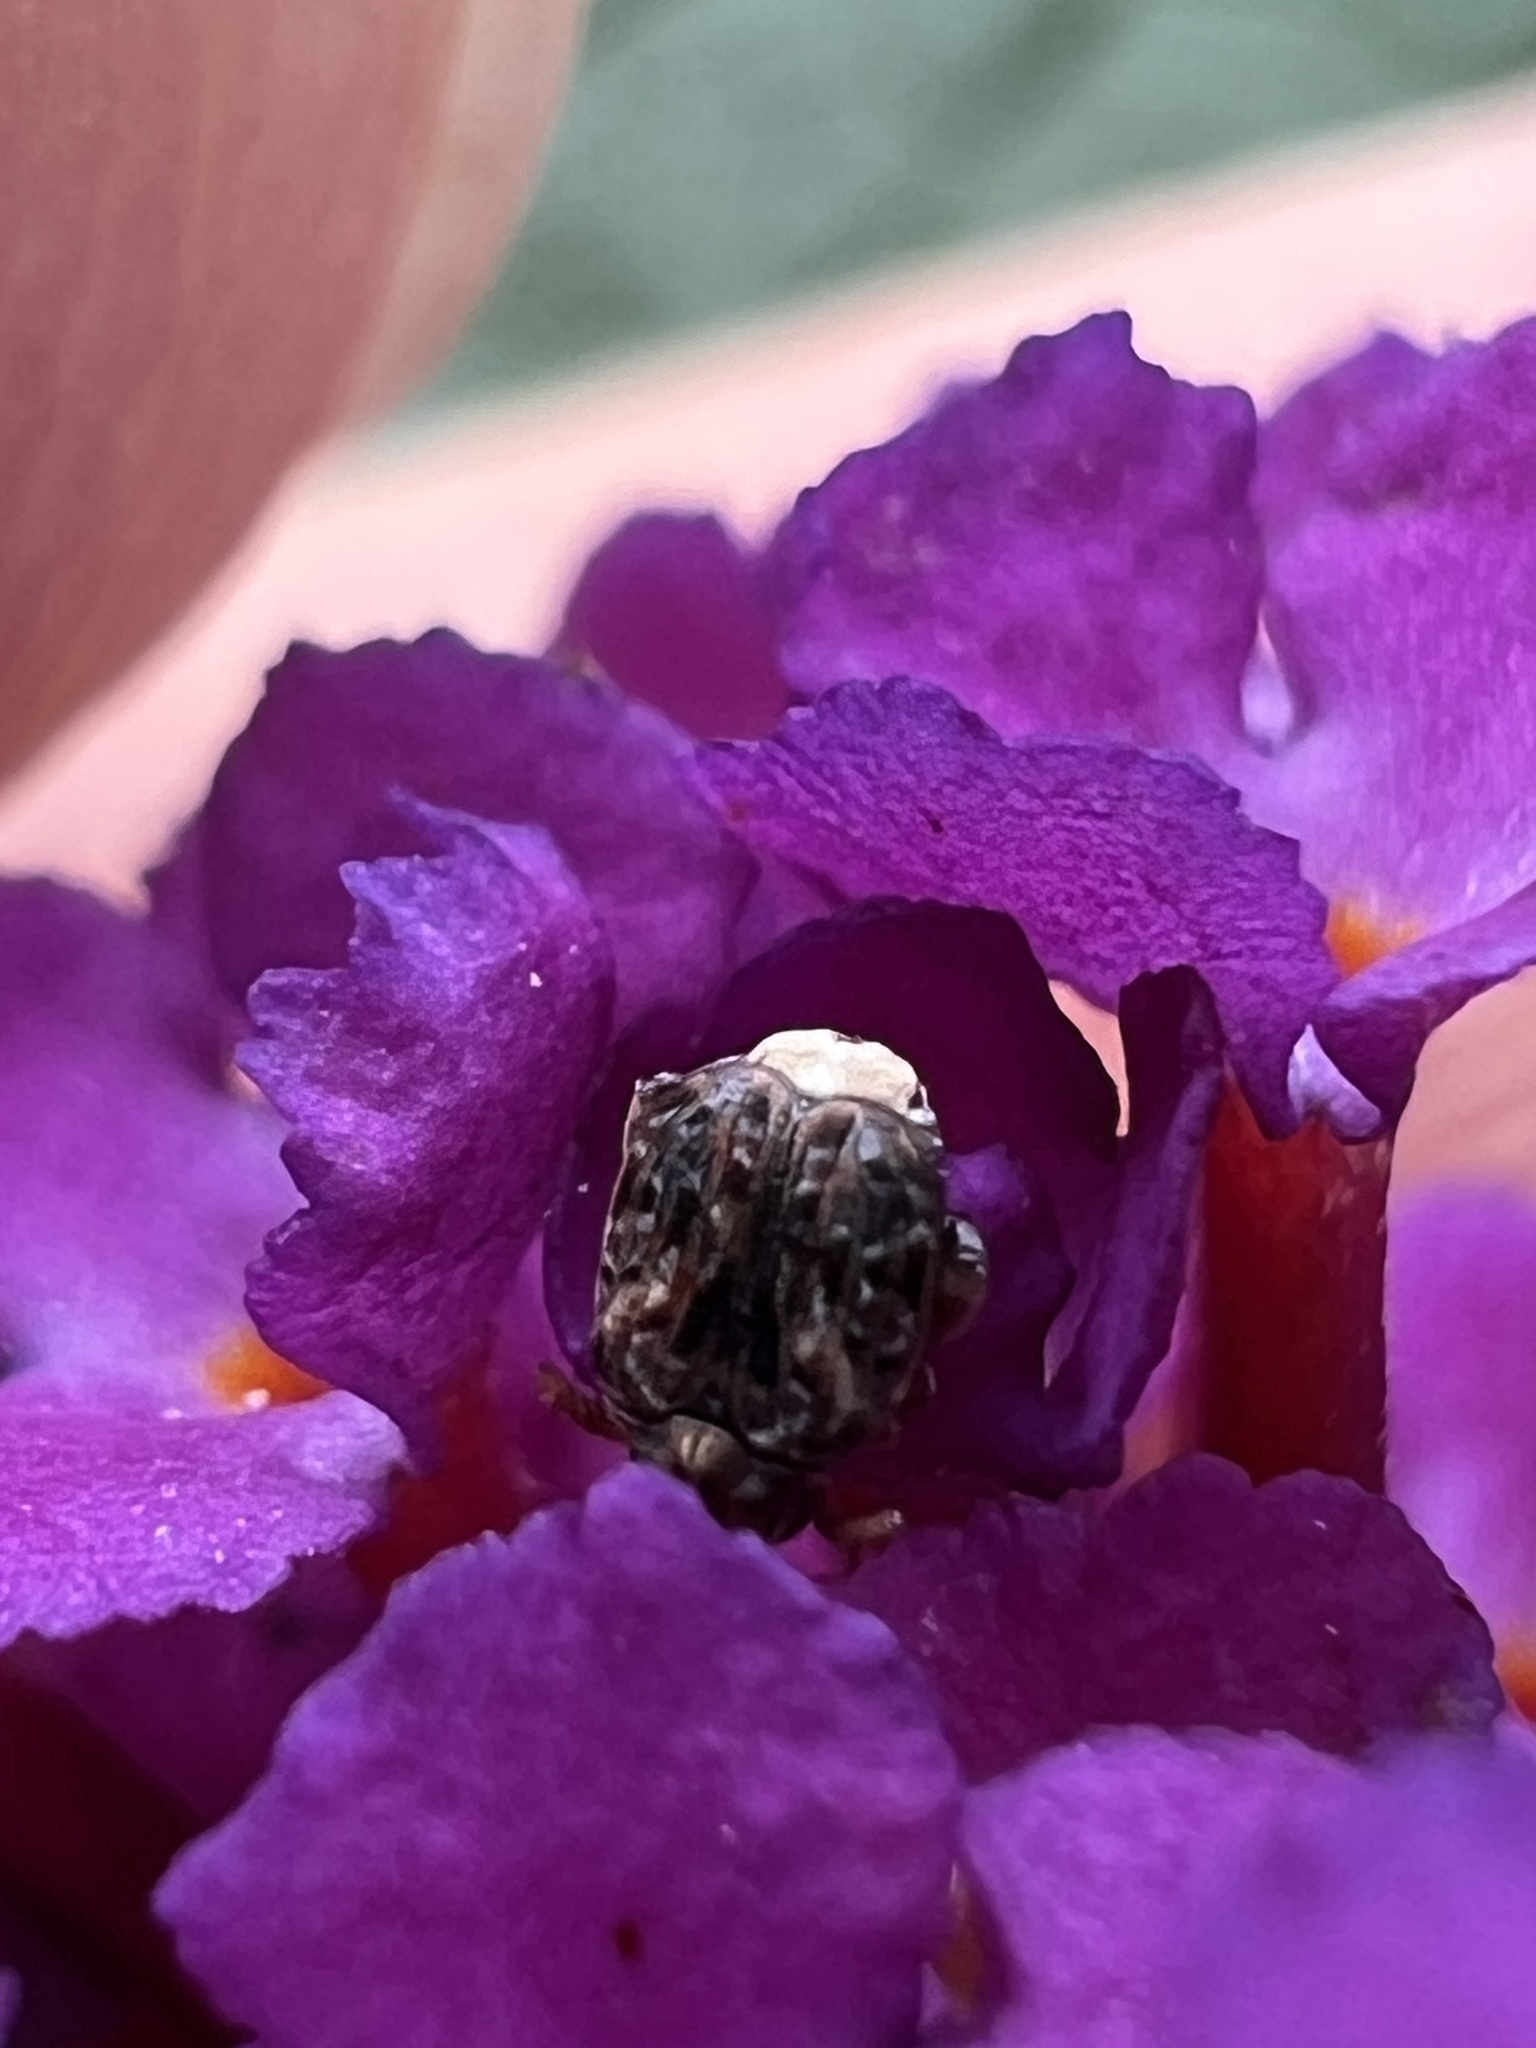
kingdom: Animalia
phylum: Arthropoda
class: Insecta
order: Coleoptera
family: Chrysomelidae
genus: Gibbobruchus
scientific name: Gibbobruchus mimus
